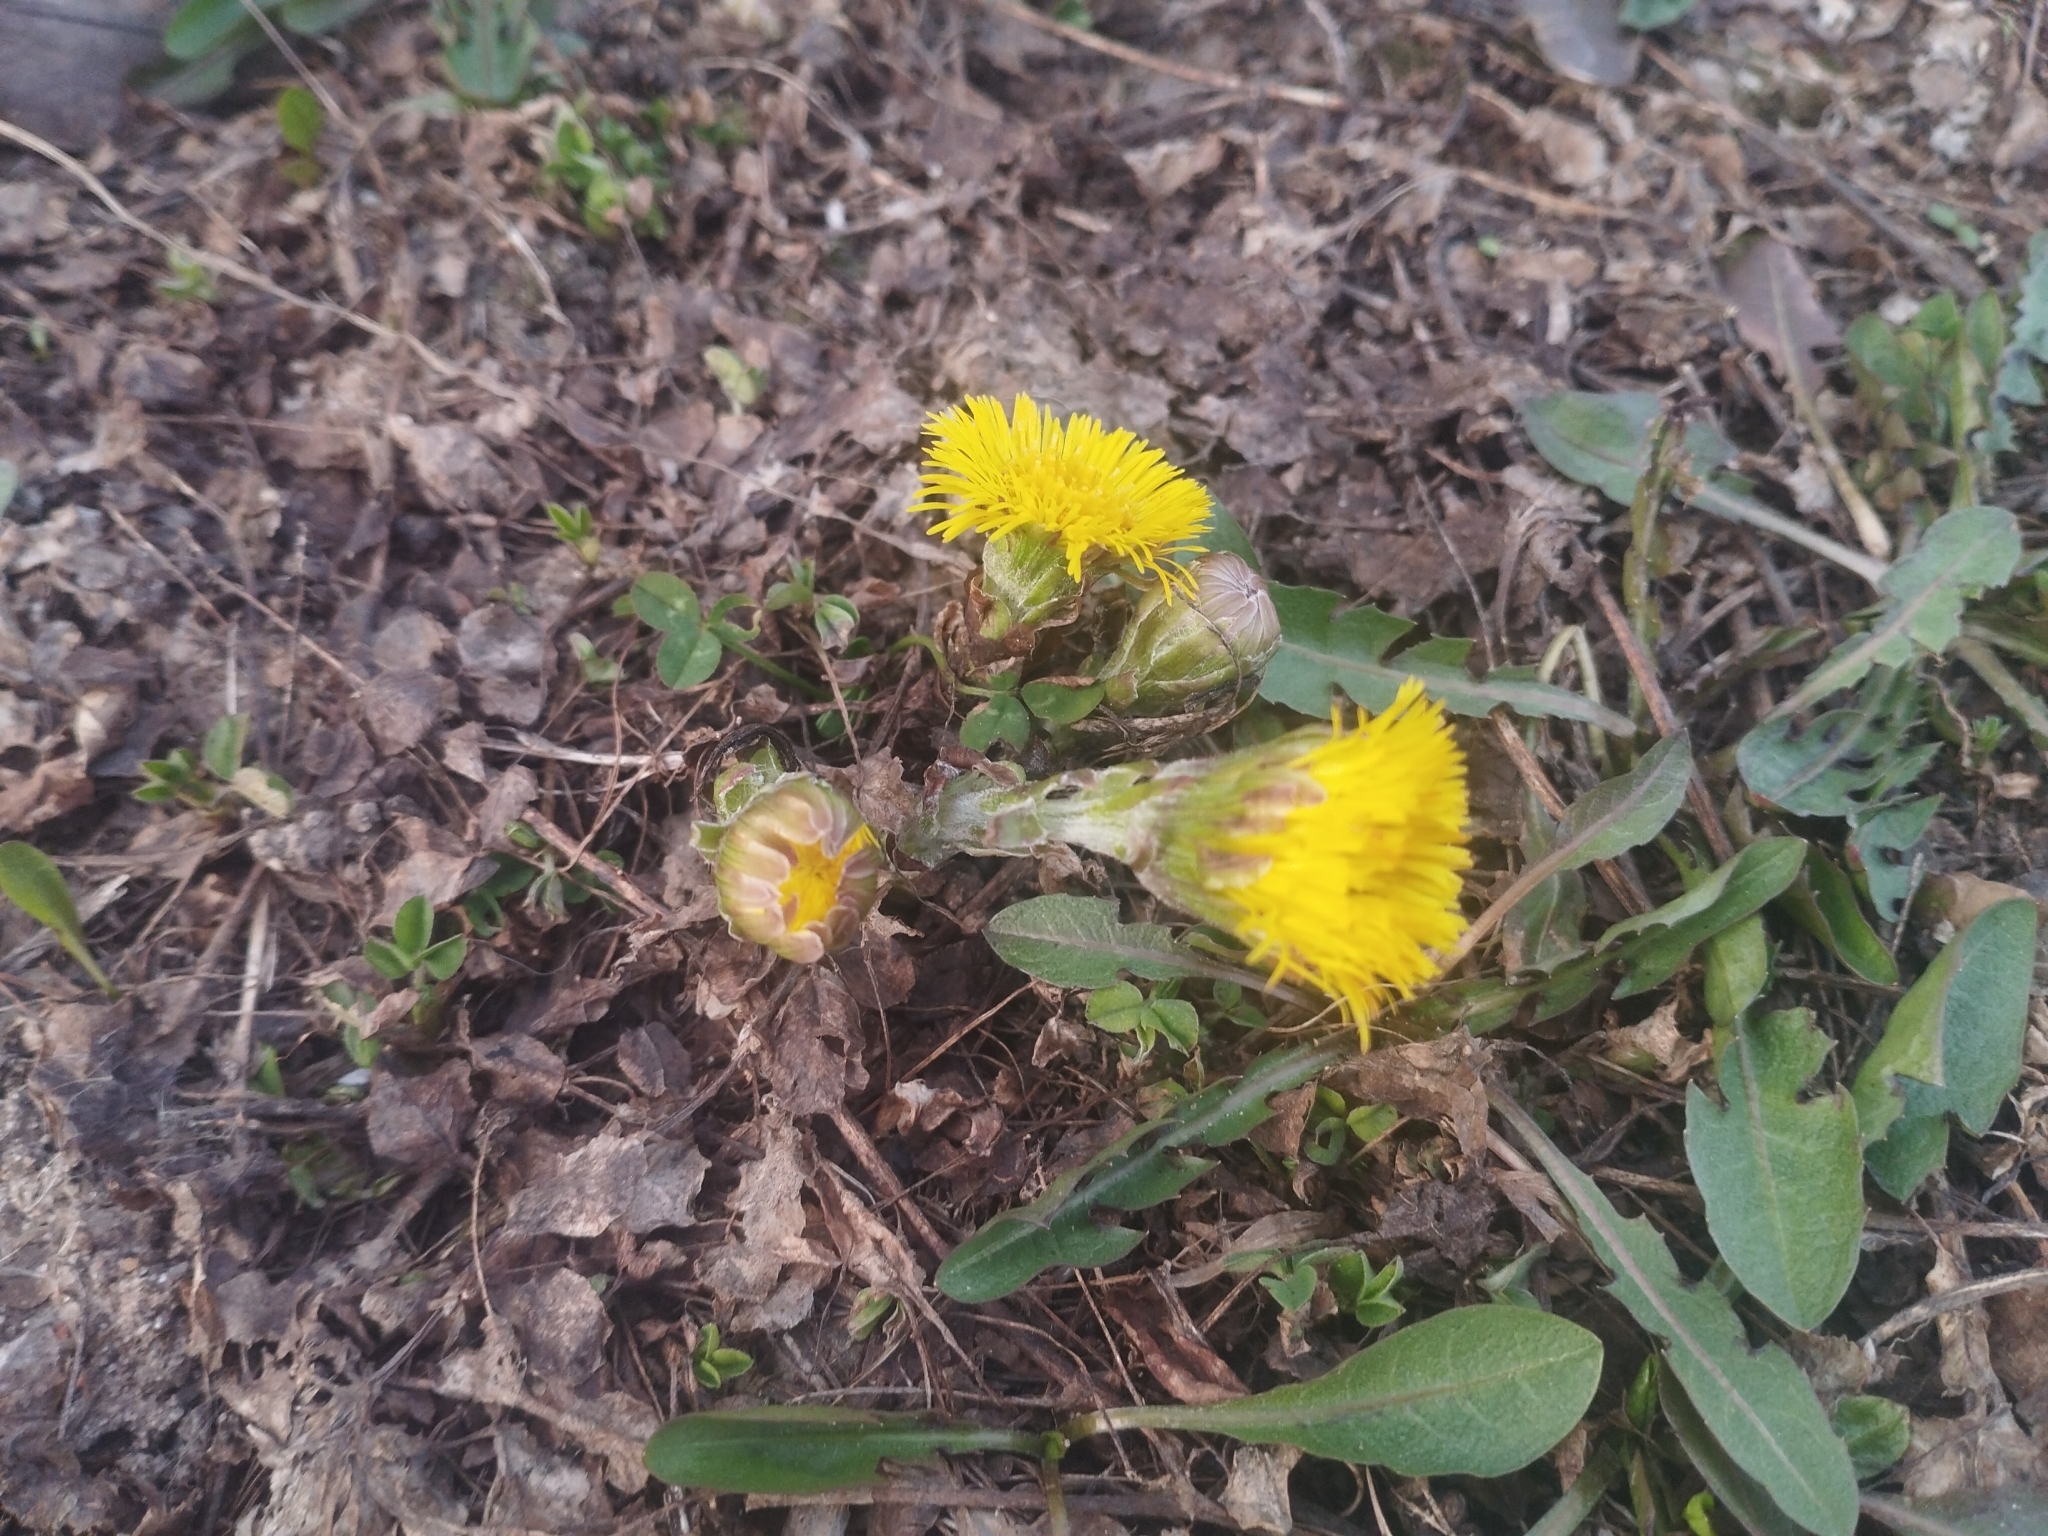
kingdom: Plantae
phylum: Tracheophyta
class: Magnoliopsida
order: Asterales
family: Asteraceae
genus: Tussilago
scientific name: Tussilago farfara
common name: Coltsfoot
